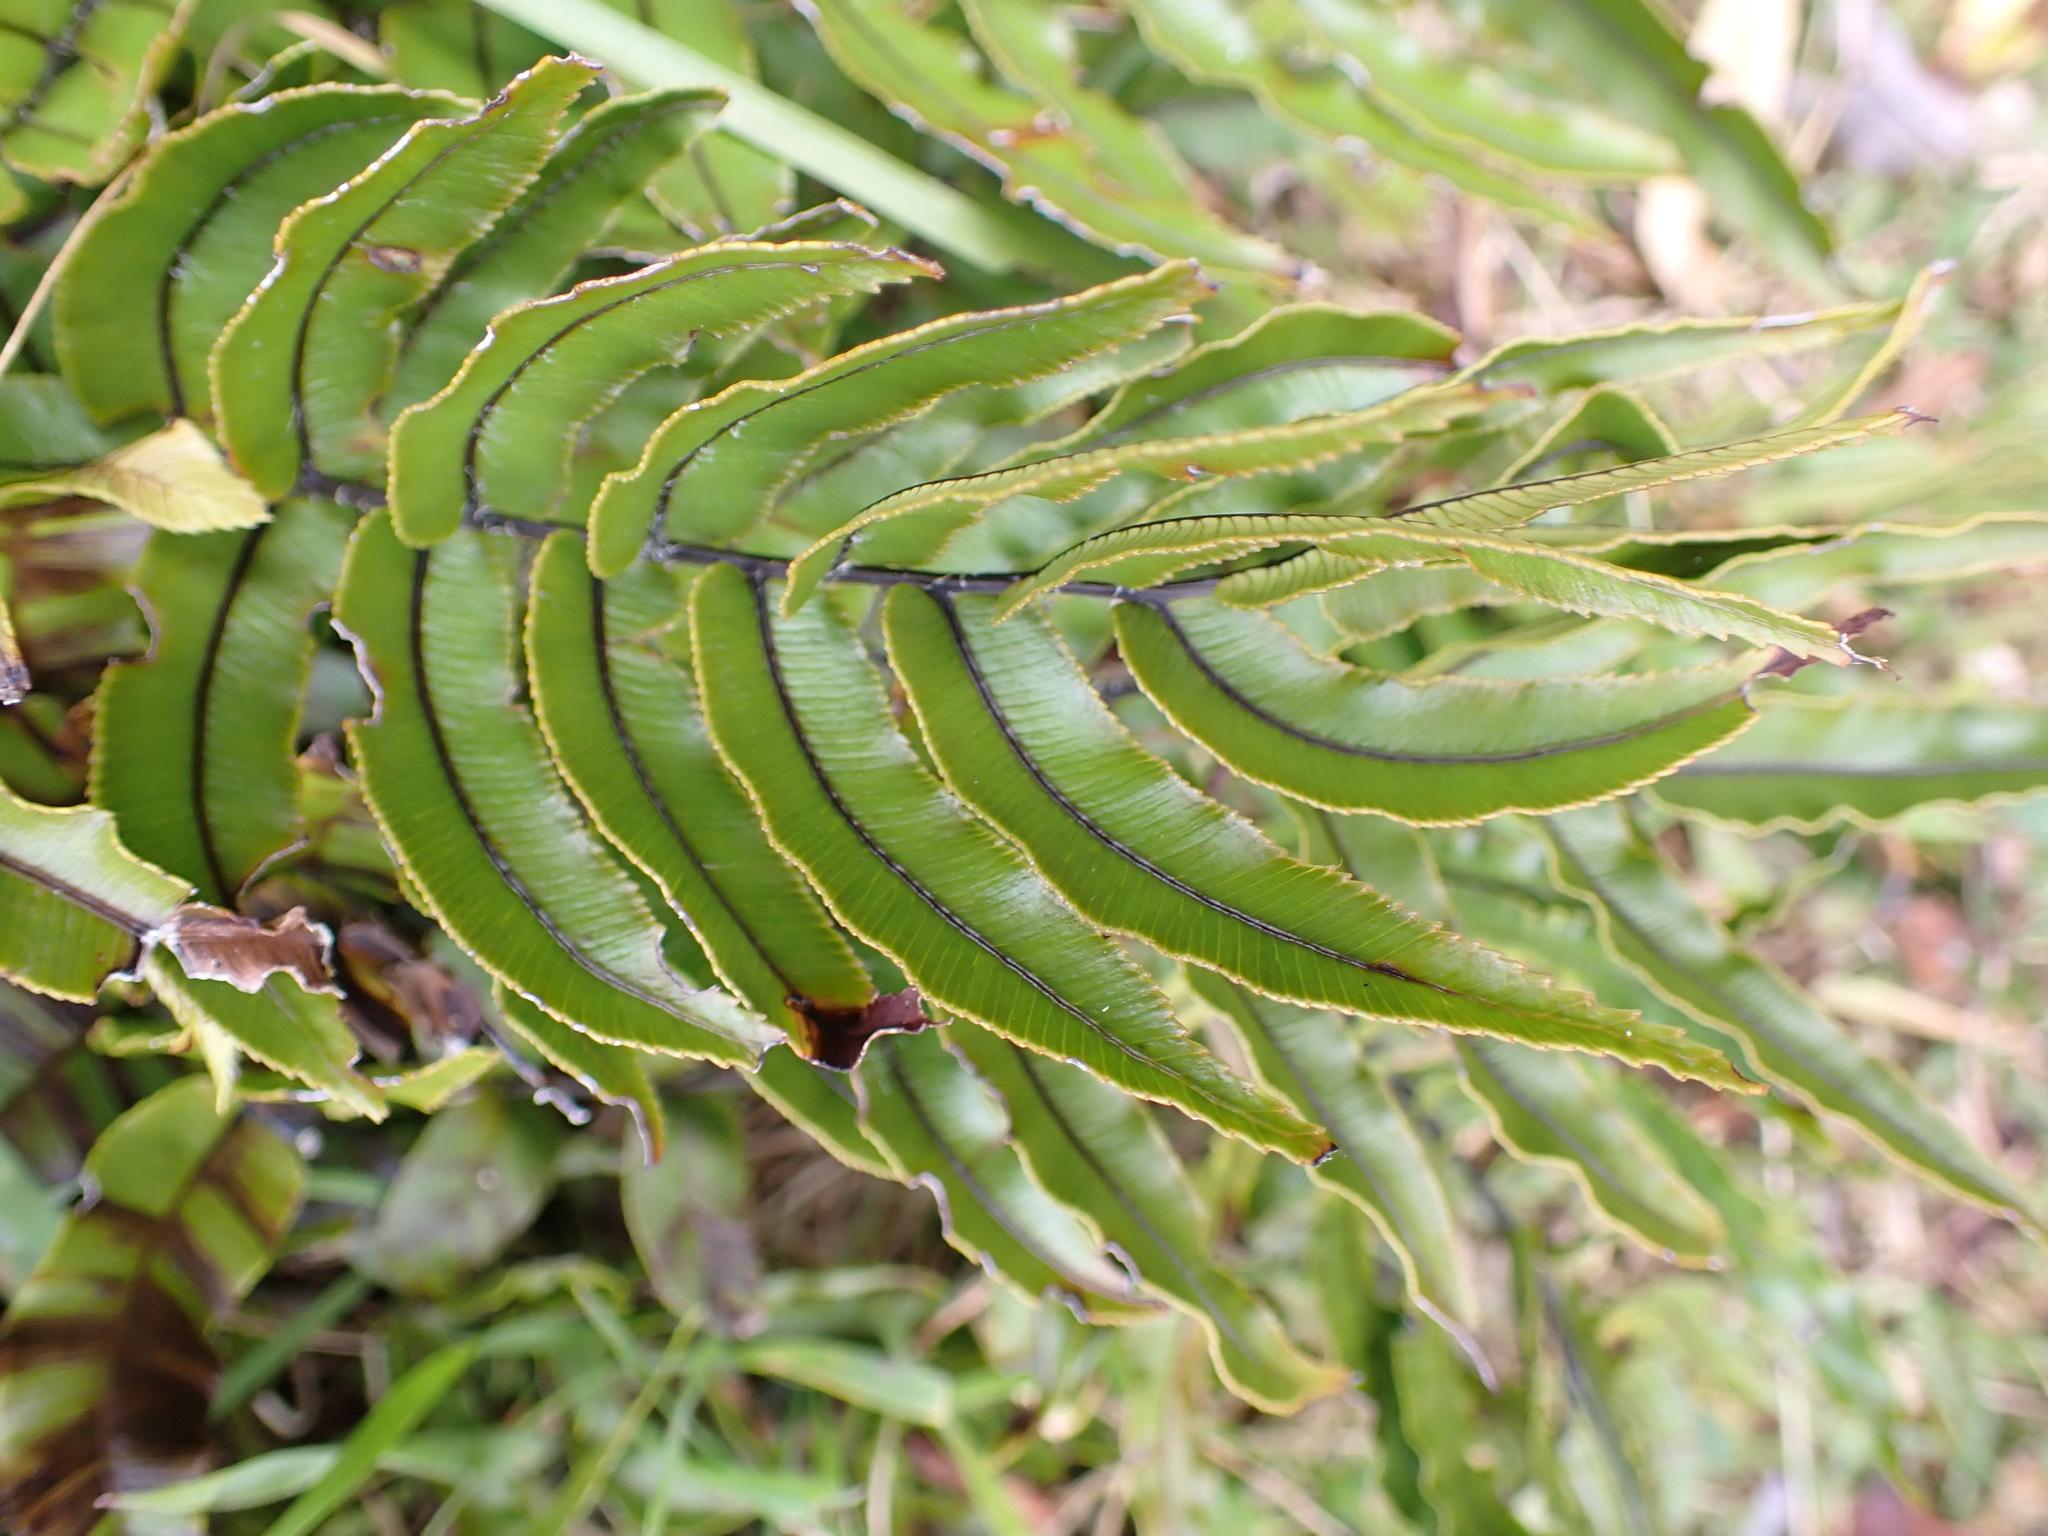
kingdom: Plantae
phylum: Tracheophyta
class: Polypodiopsida
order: Polypodiales
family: Blechnaceae
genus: Parablechnum
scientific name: Parablechnum montanum
